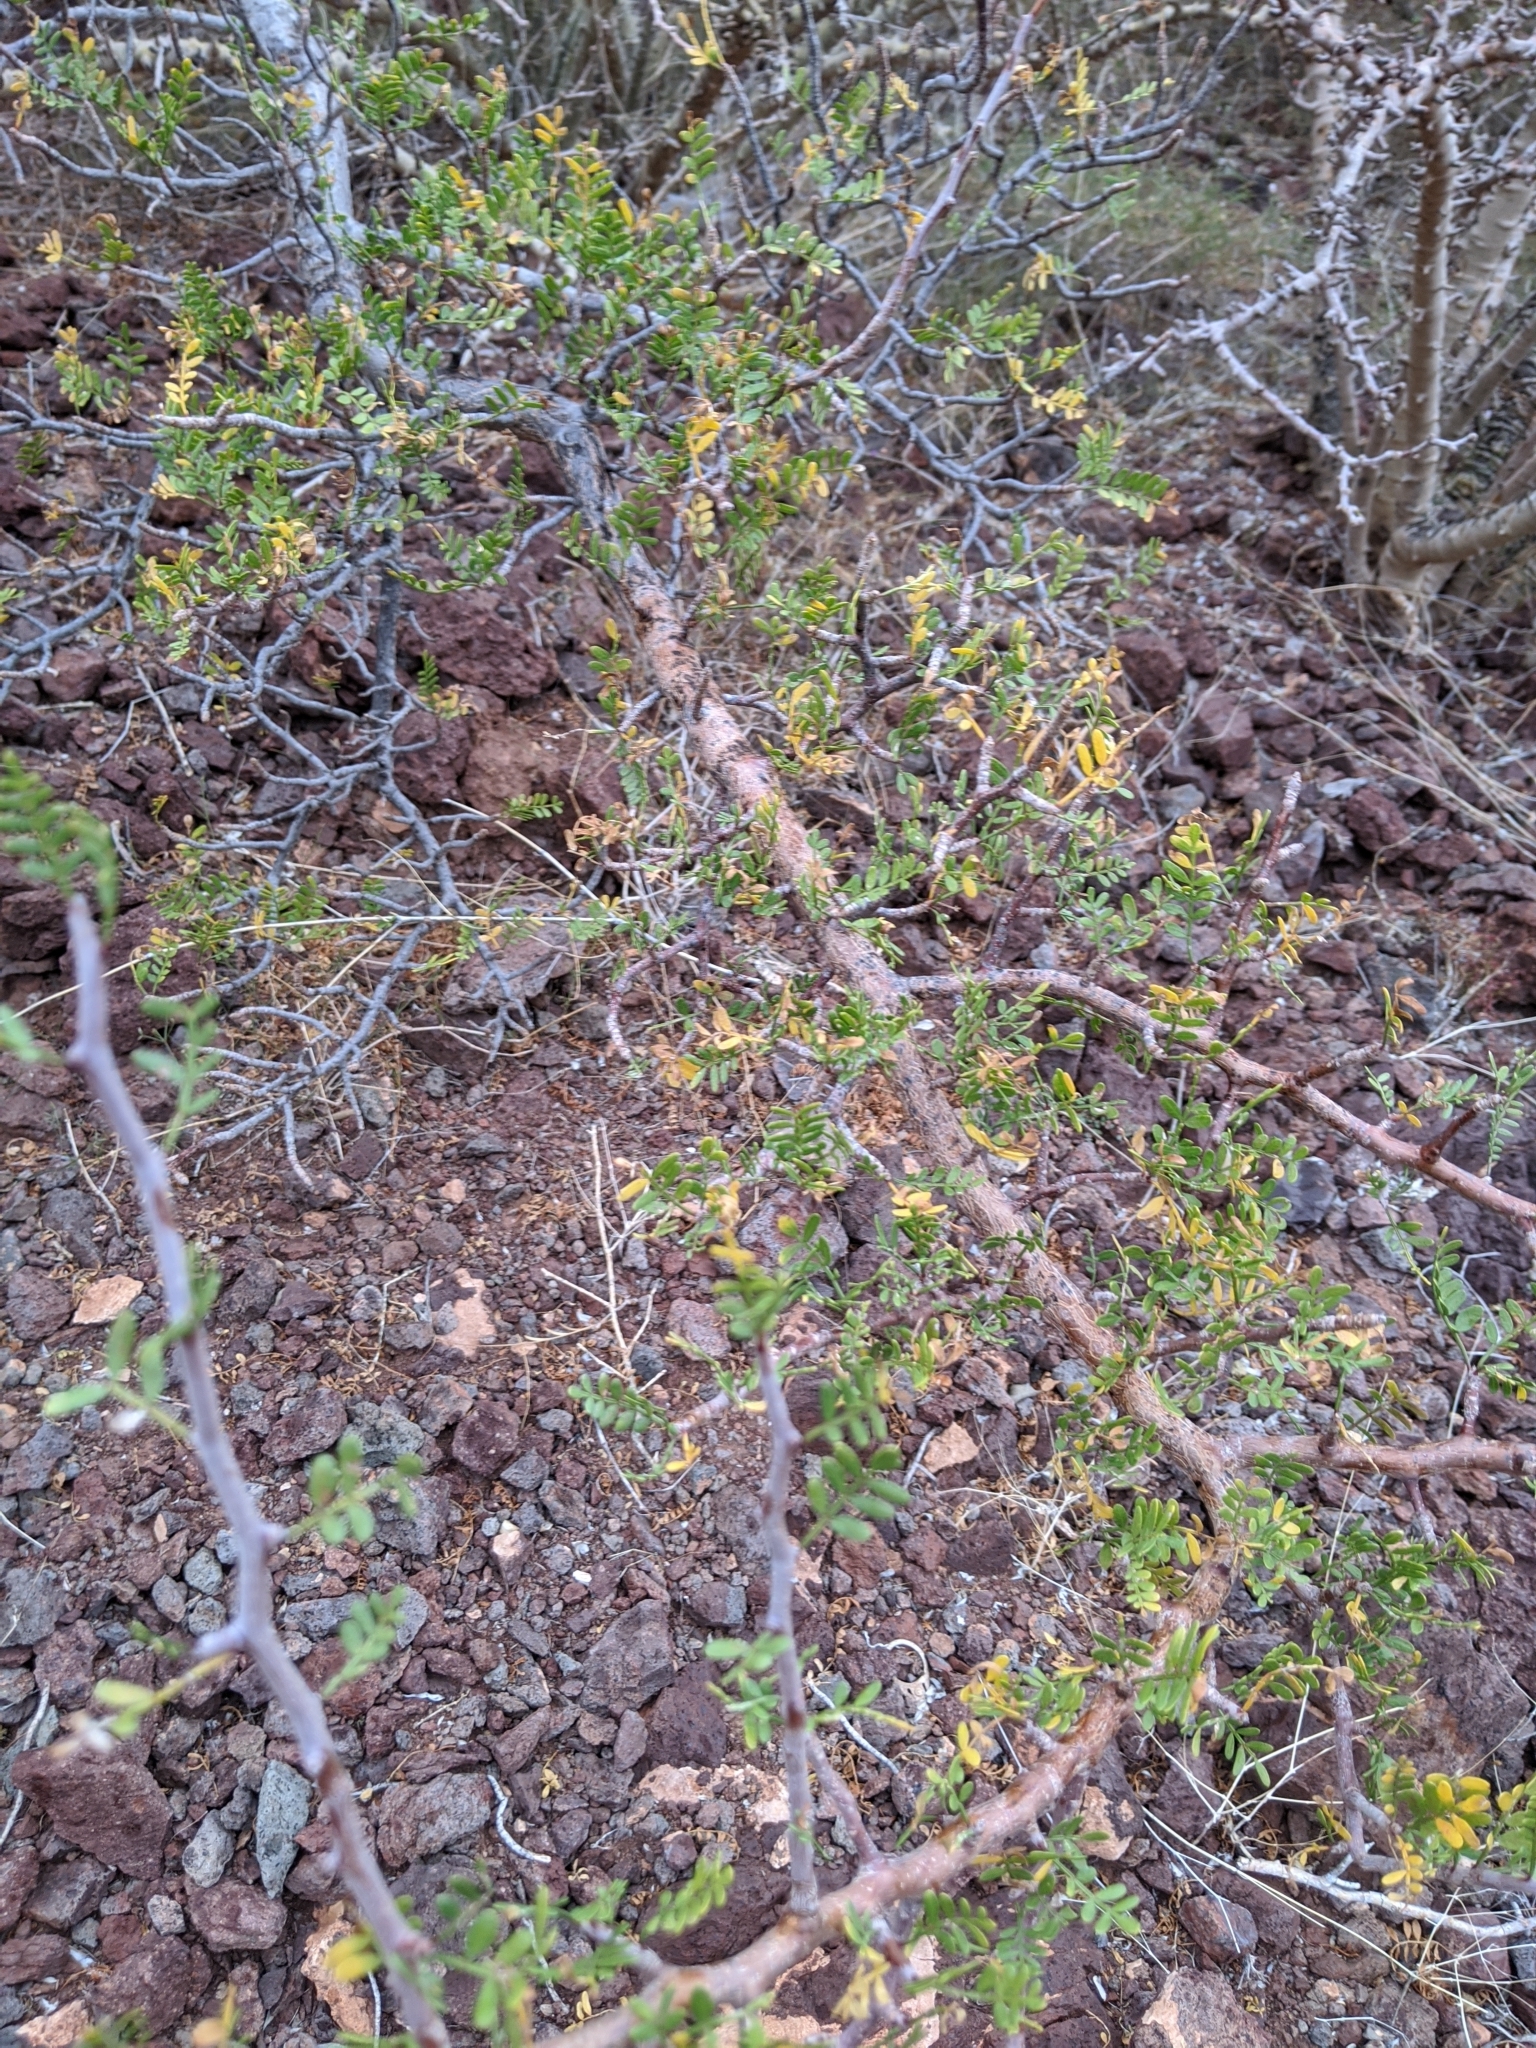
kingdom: Plantae
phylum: Tracheophyta
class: Magnoliopsida
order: Sapindales
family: Burseraceae
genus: Bursera
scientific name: Bursera microphylla
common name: Elephant tree
